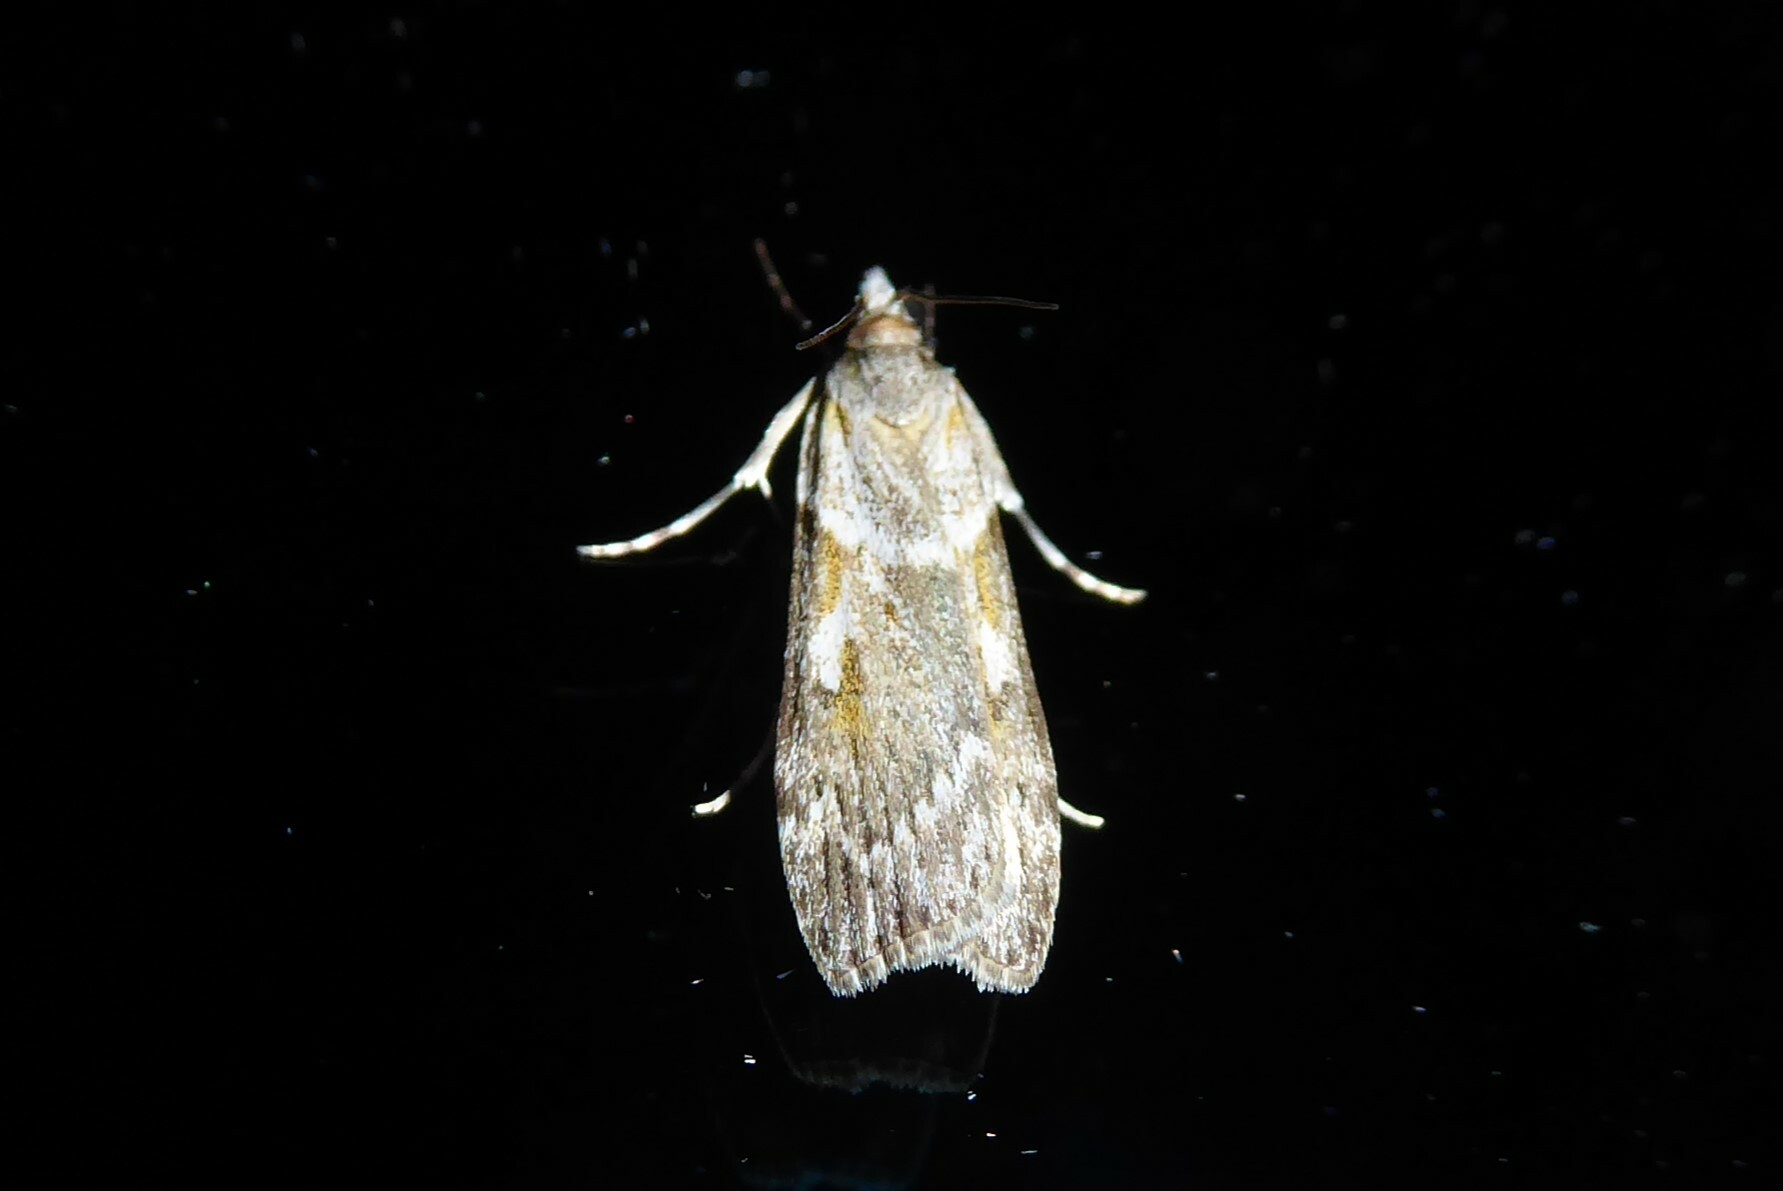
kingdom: Animalia
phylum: Arthropoda
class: Insecta
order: Lepidoptera
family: Crambidae
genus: Scoparia
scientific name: Scoparia halopis
